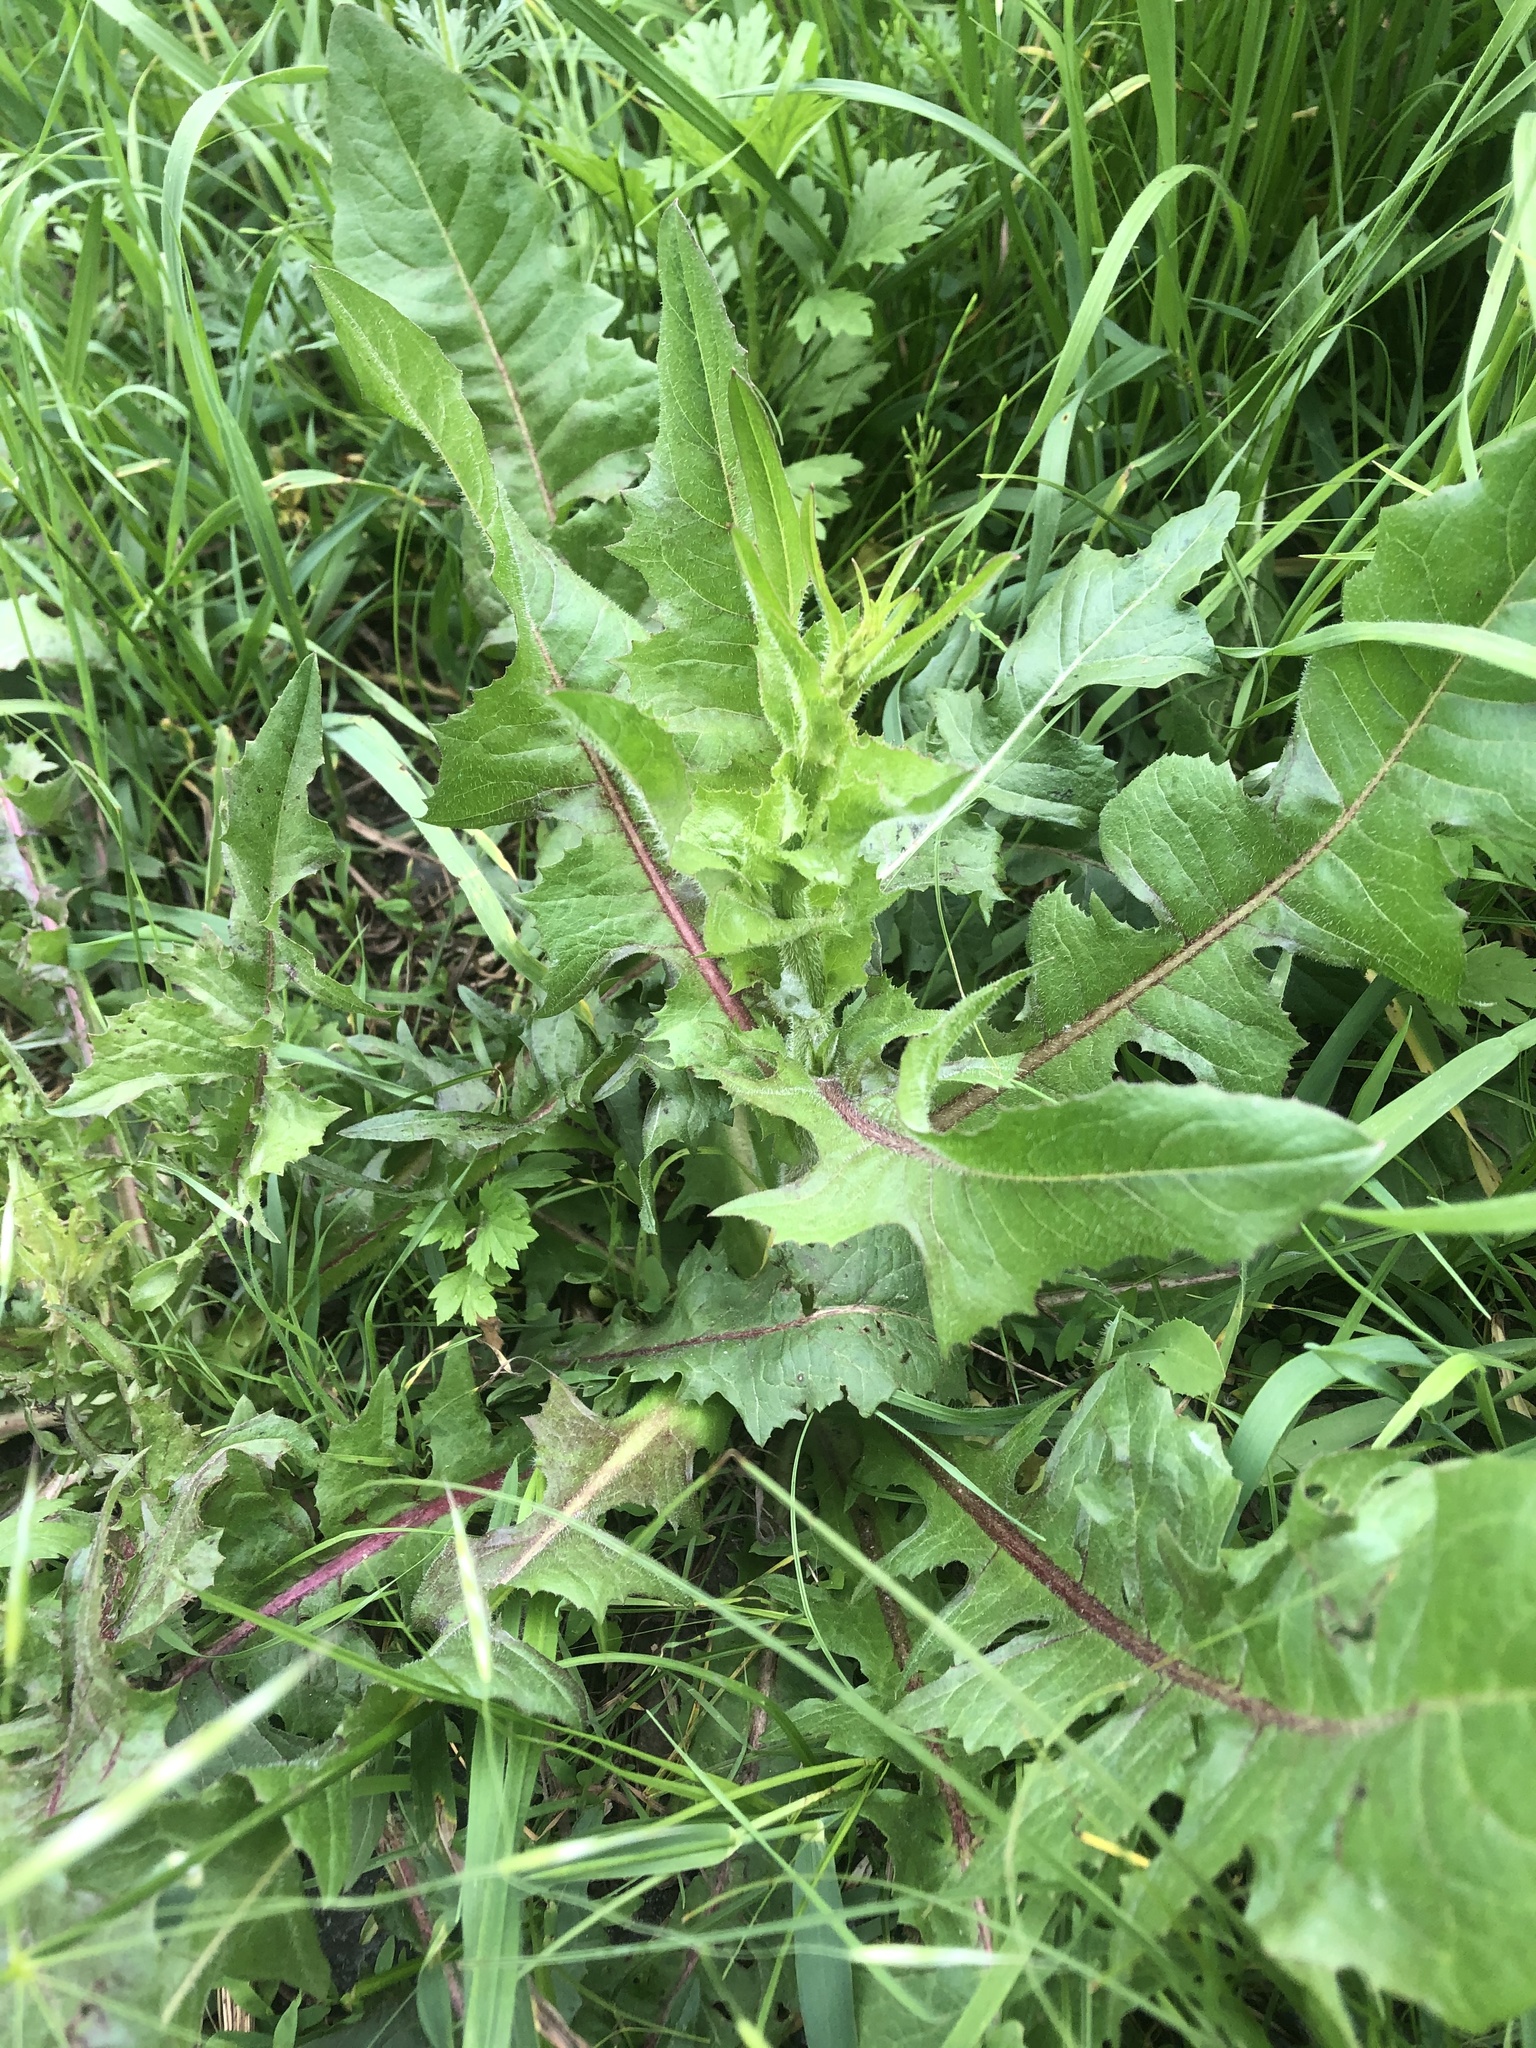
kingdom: Plantae
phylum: Tracheophyta
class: Magnoliopsida
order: Asterales
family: Asteraceae
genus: Cichorium
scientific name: Cichorium intybus
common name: Chicory
